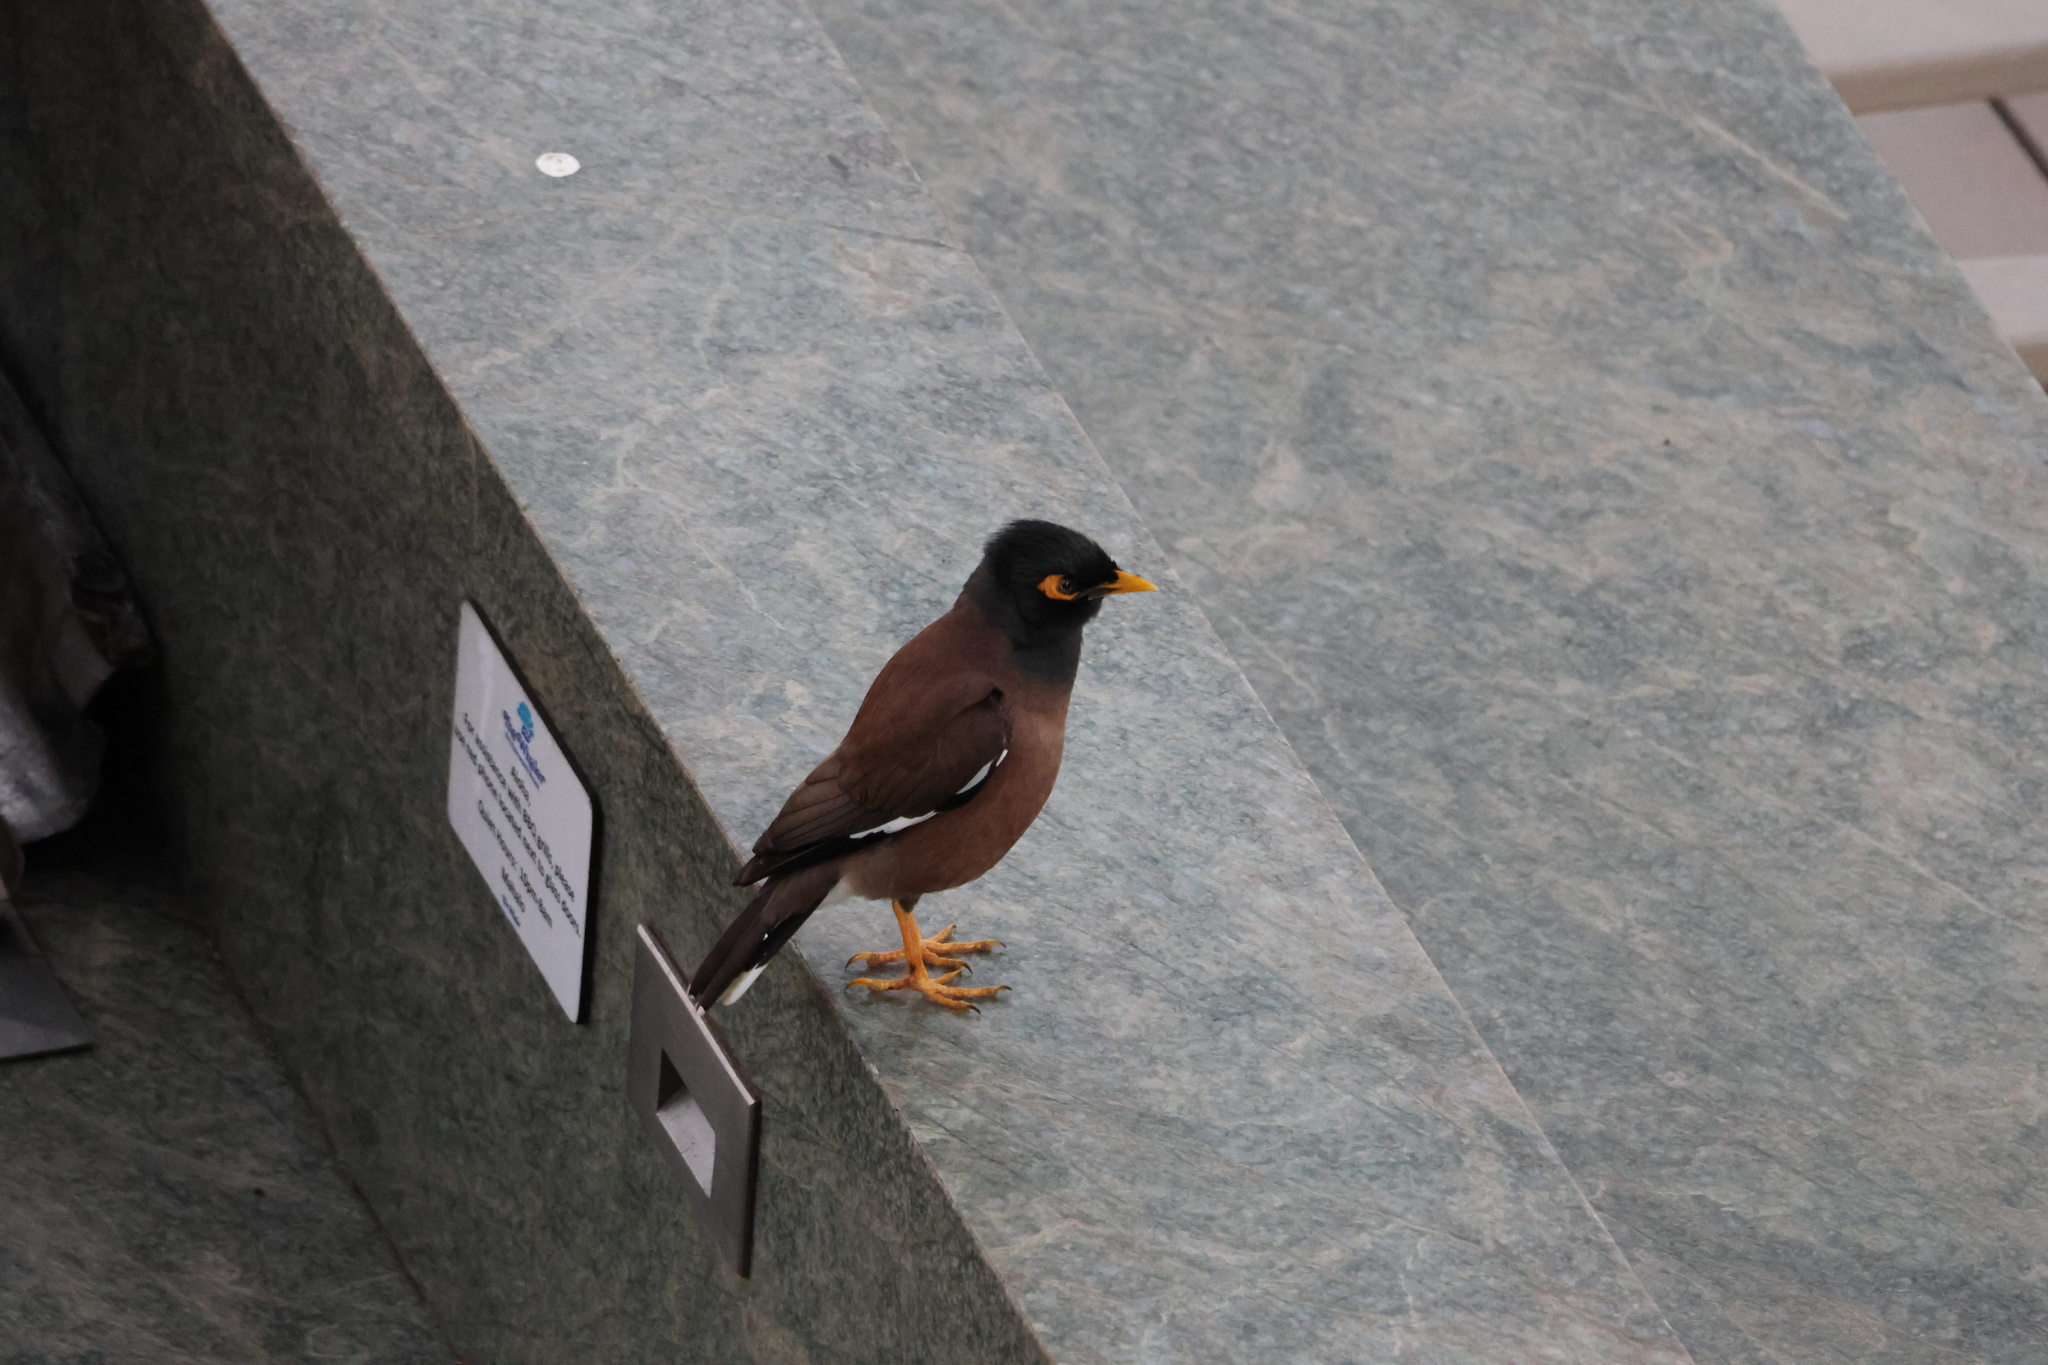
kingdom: Animalia
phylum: Chordata
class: Aves
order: Passeriformes
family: Sturnidae
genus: Acridotheres
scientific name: Acridotheres tristis
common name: Common myna
